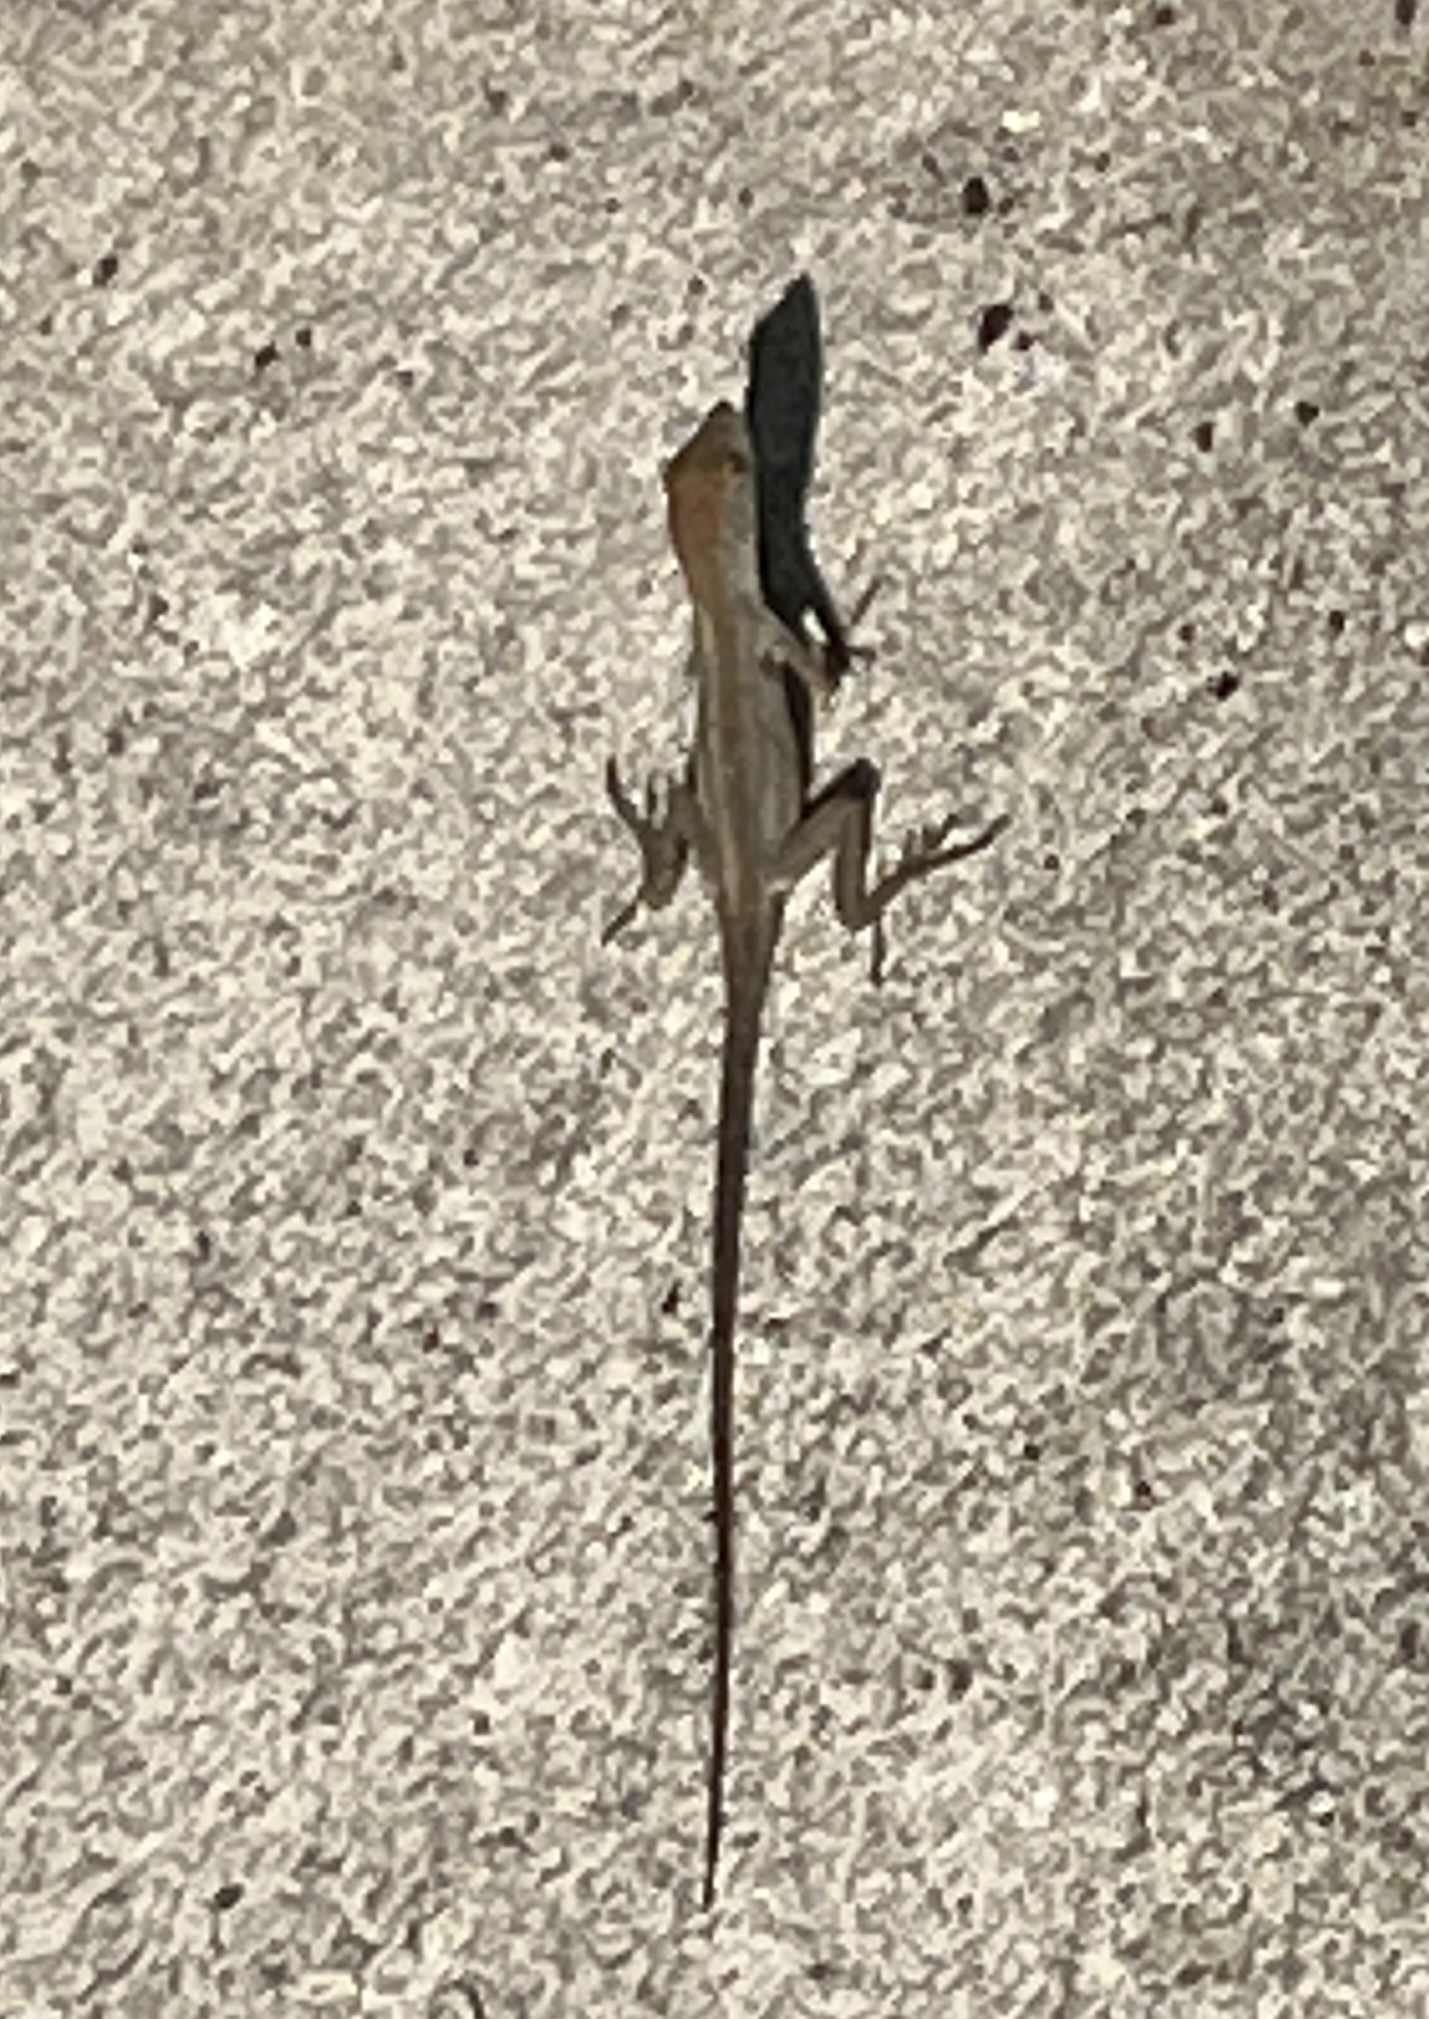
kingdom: Animalia
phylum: Chordata
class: Squamata
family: Dactyloidae
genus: Anolis
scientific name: Anolis sagrei
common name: Brown anole
